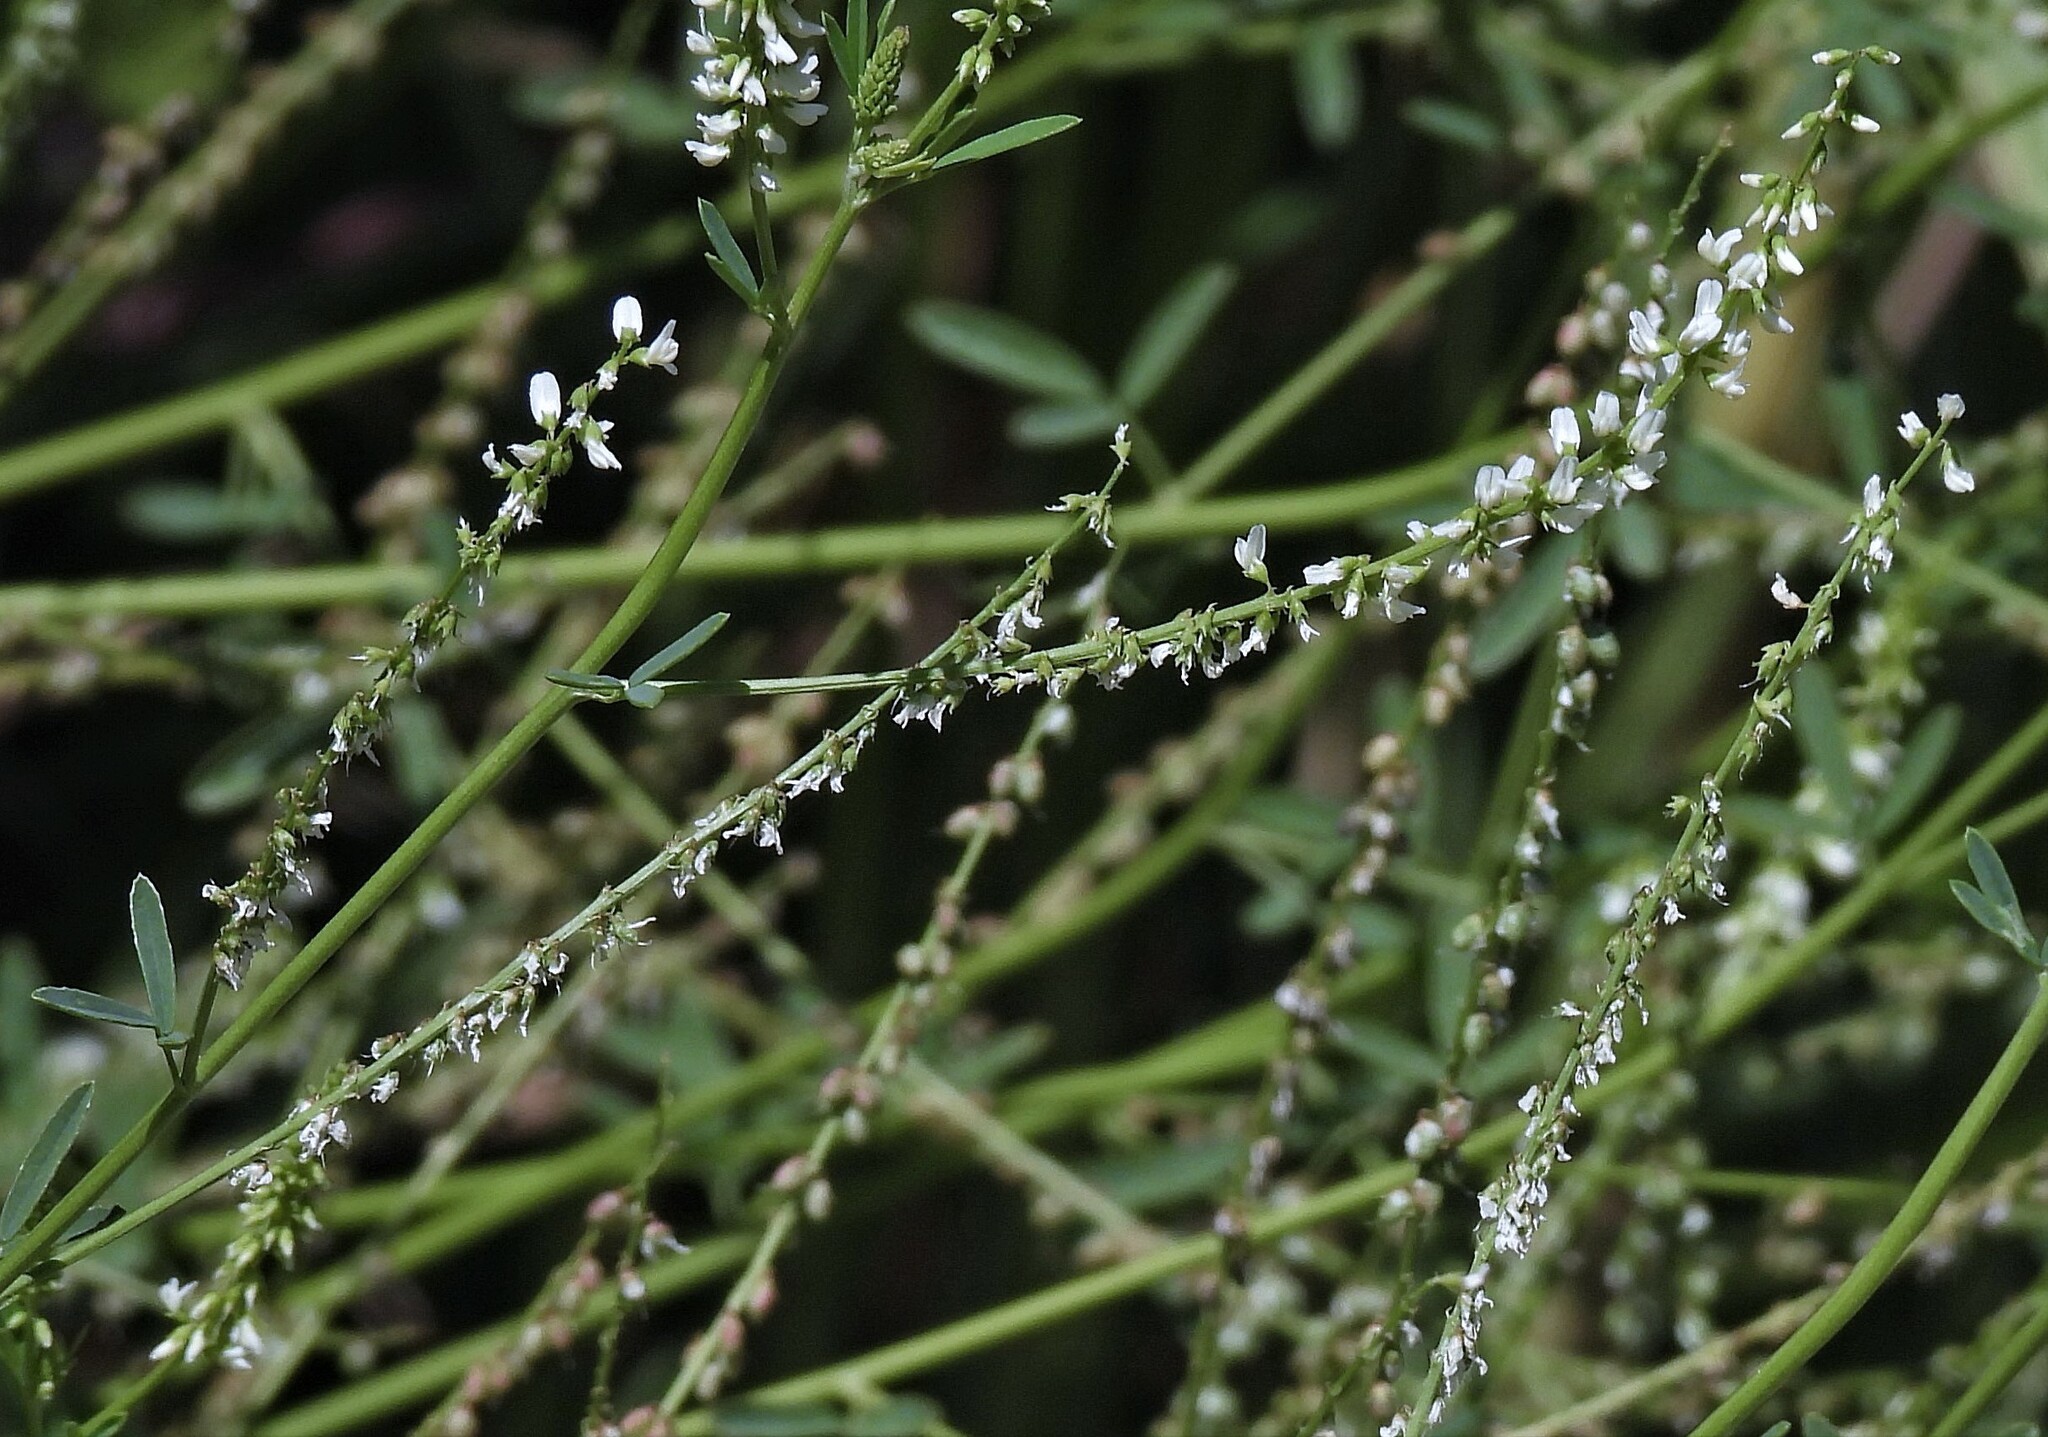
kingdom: Plantae
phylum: Tracheophyta
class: Magnoliopsida
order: Fabales
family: Fabaceae
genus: Melilotus
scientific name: Melilotus albus
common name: White melilot
